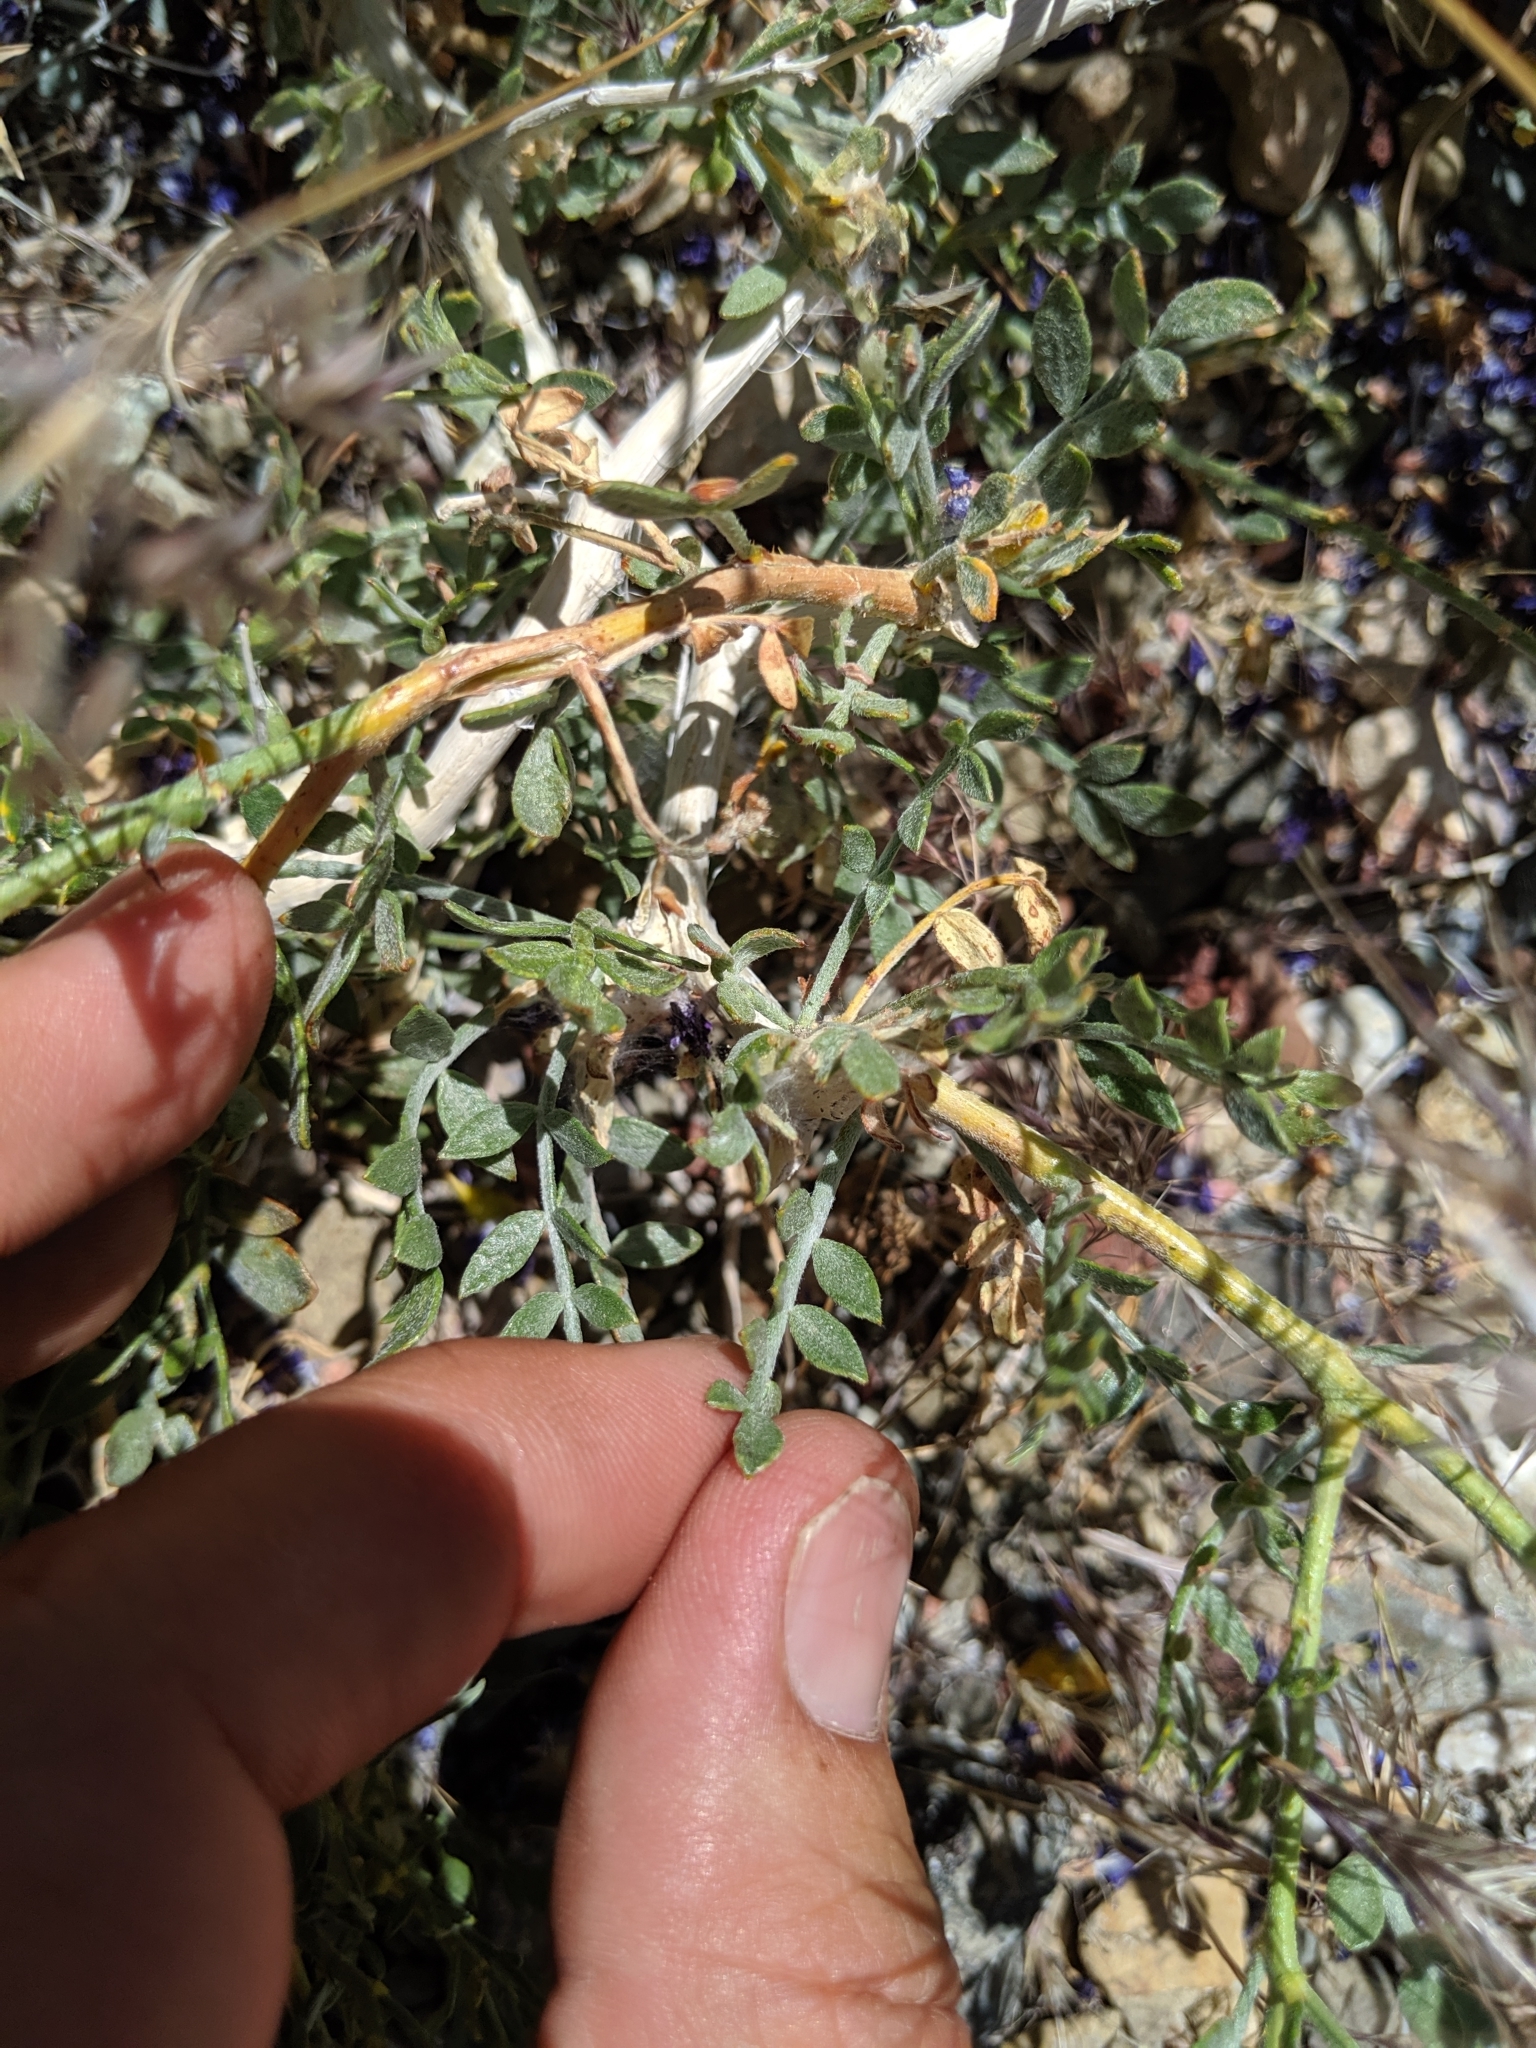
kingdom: Plantae
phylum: Tracheophyta
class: Magnoliopsida
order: Fabales
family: Fabaceae
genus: Psorothamnus
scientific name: Psorothamnus arborescens
